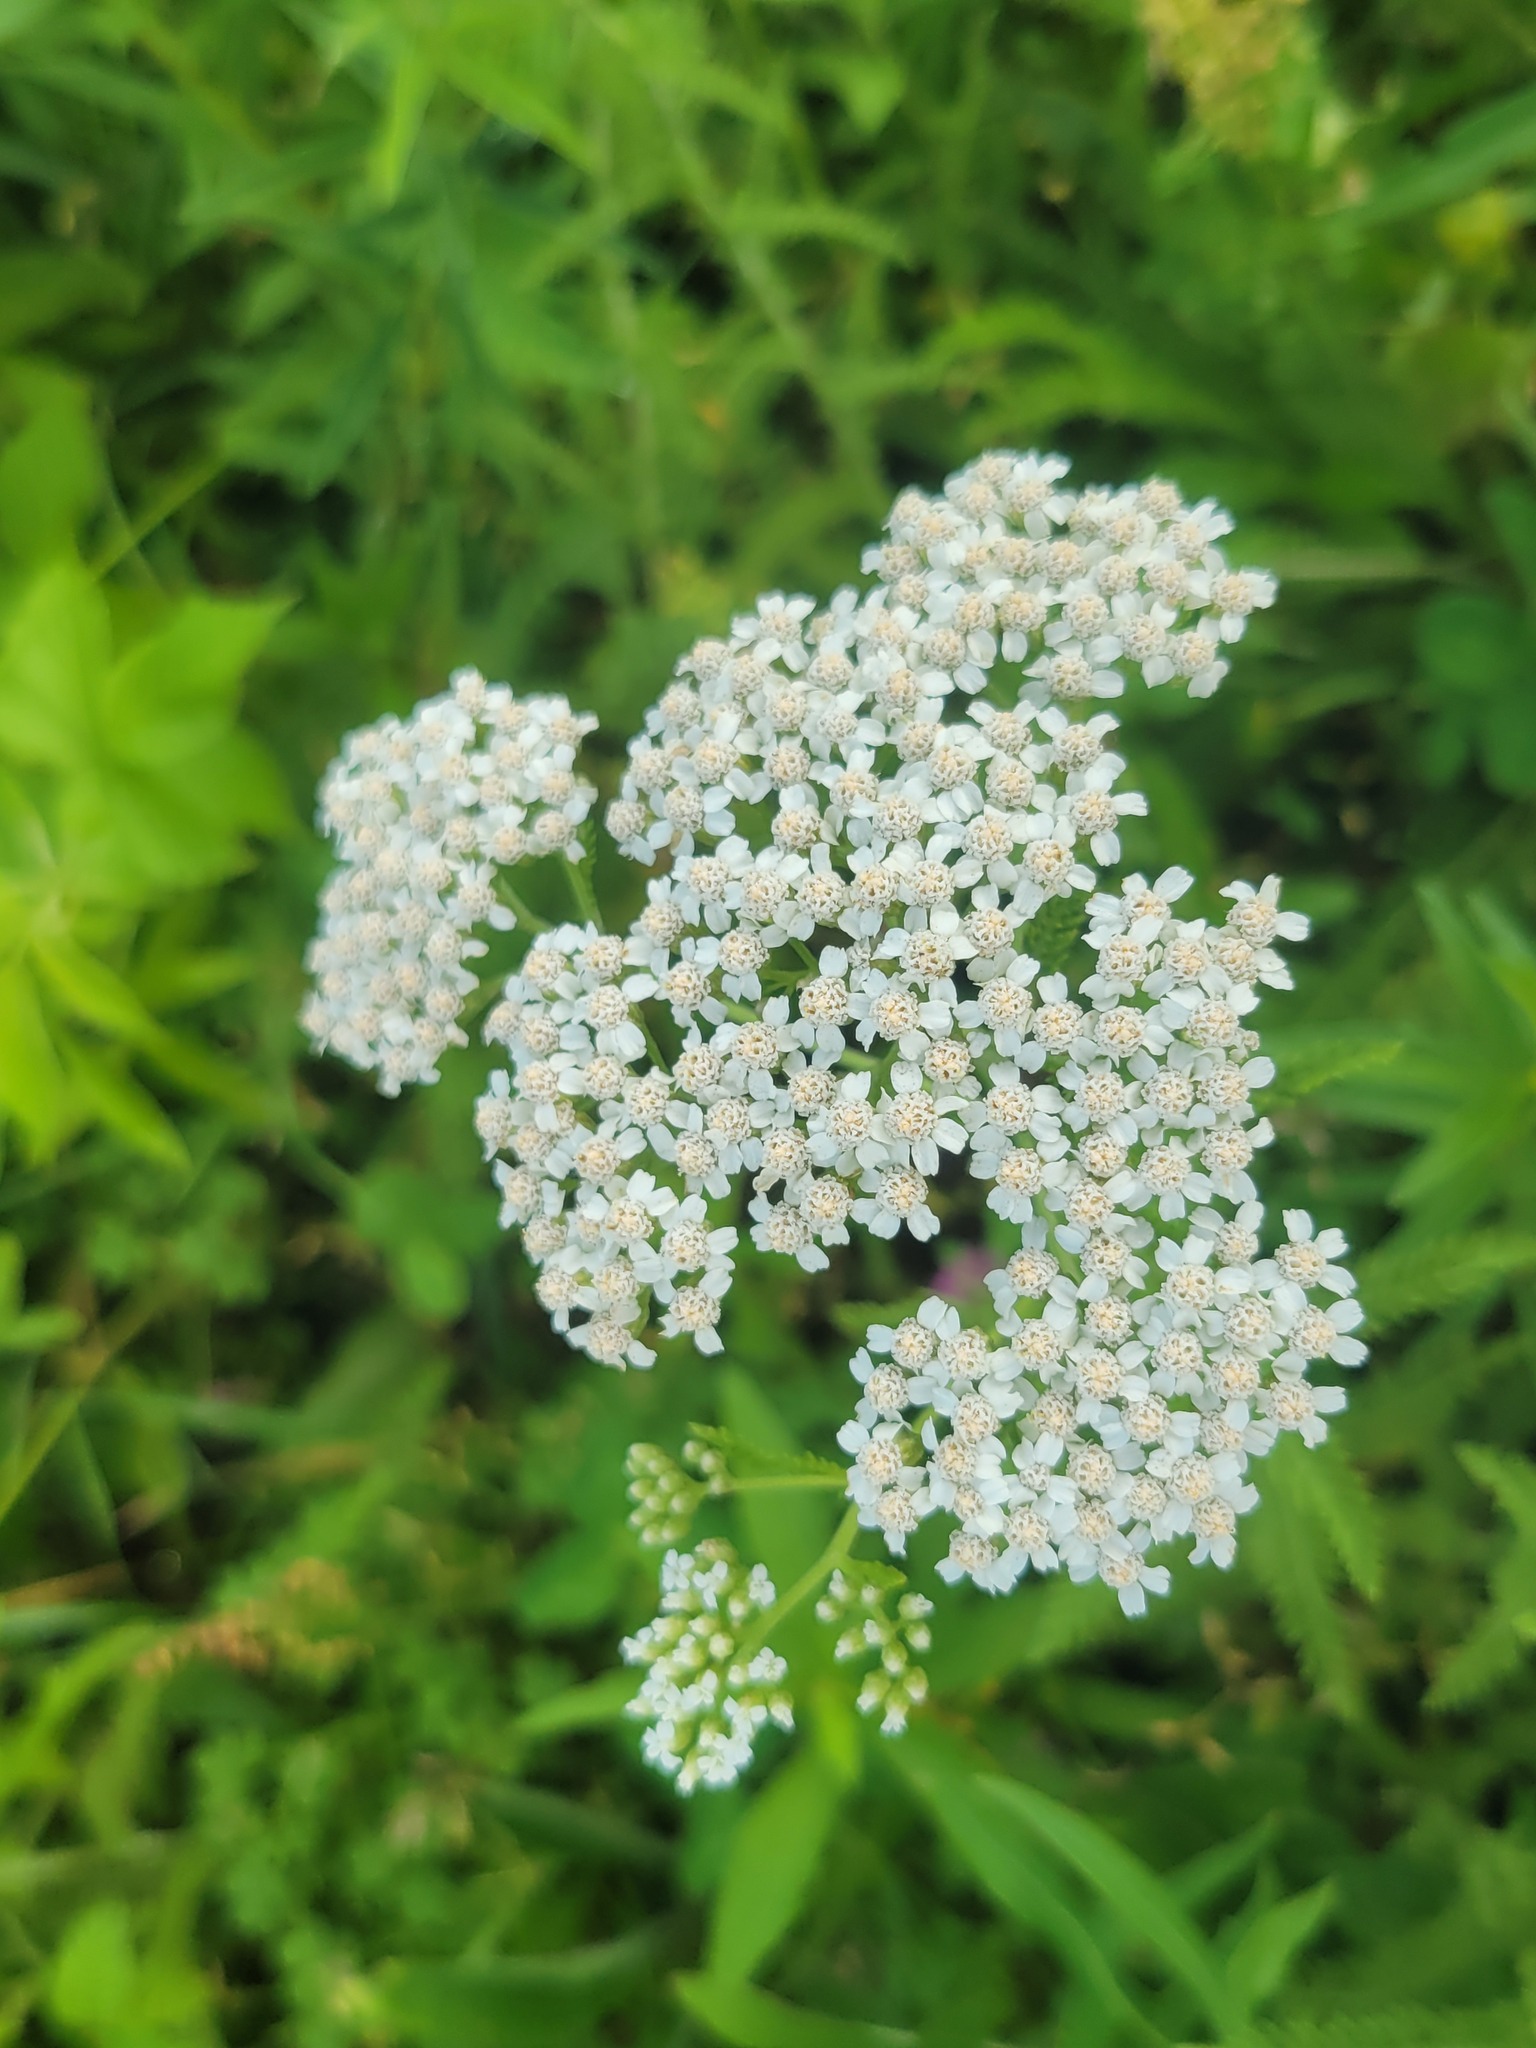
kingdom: Plantae
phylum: Tracheophyta
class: Magnoliopsida
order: Asterales
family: Asteraceae
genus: Achillea
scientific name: Achillea millefolium
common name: Yarrow
